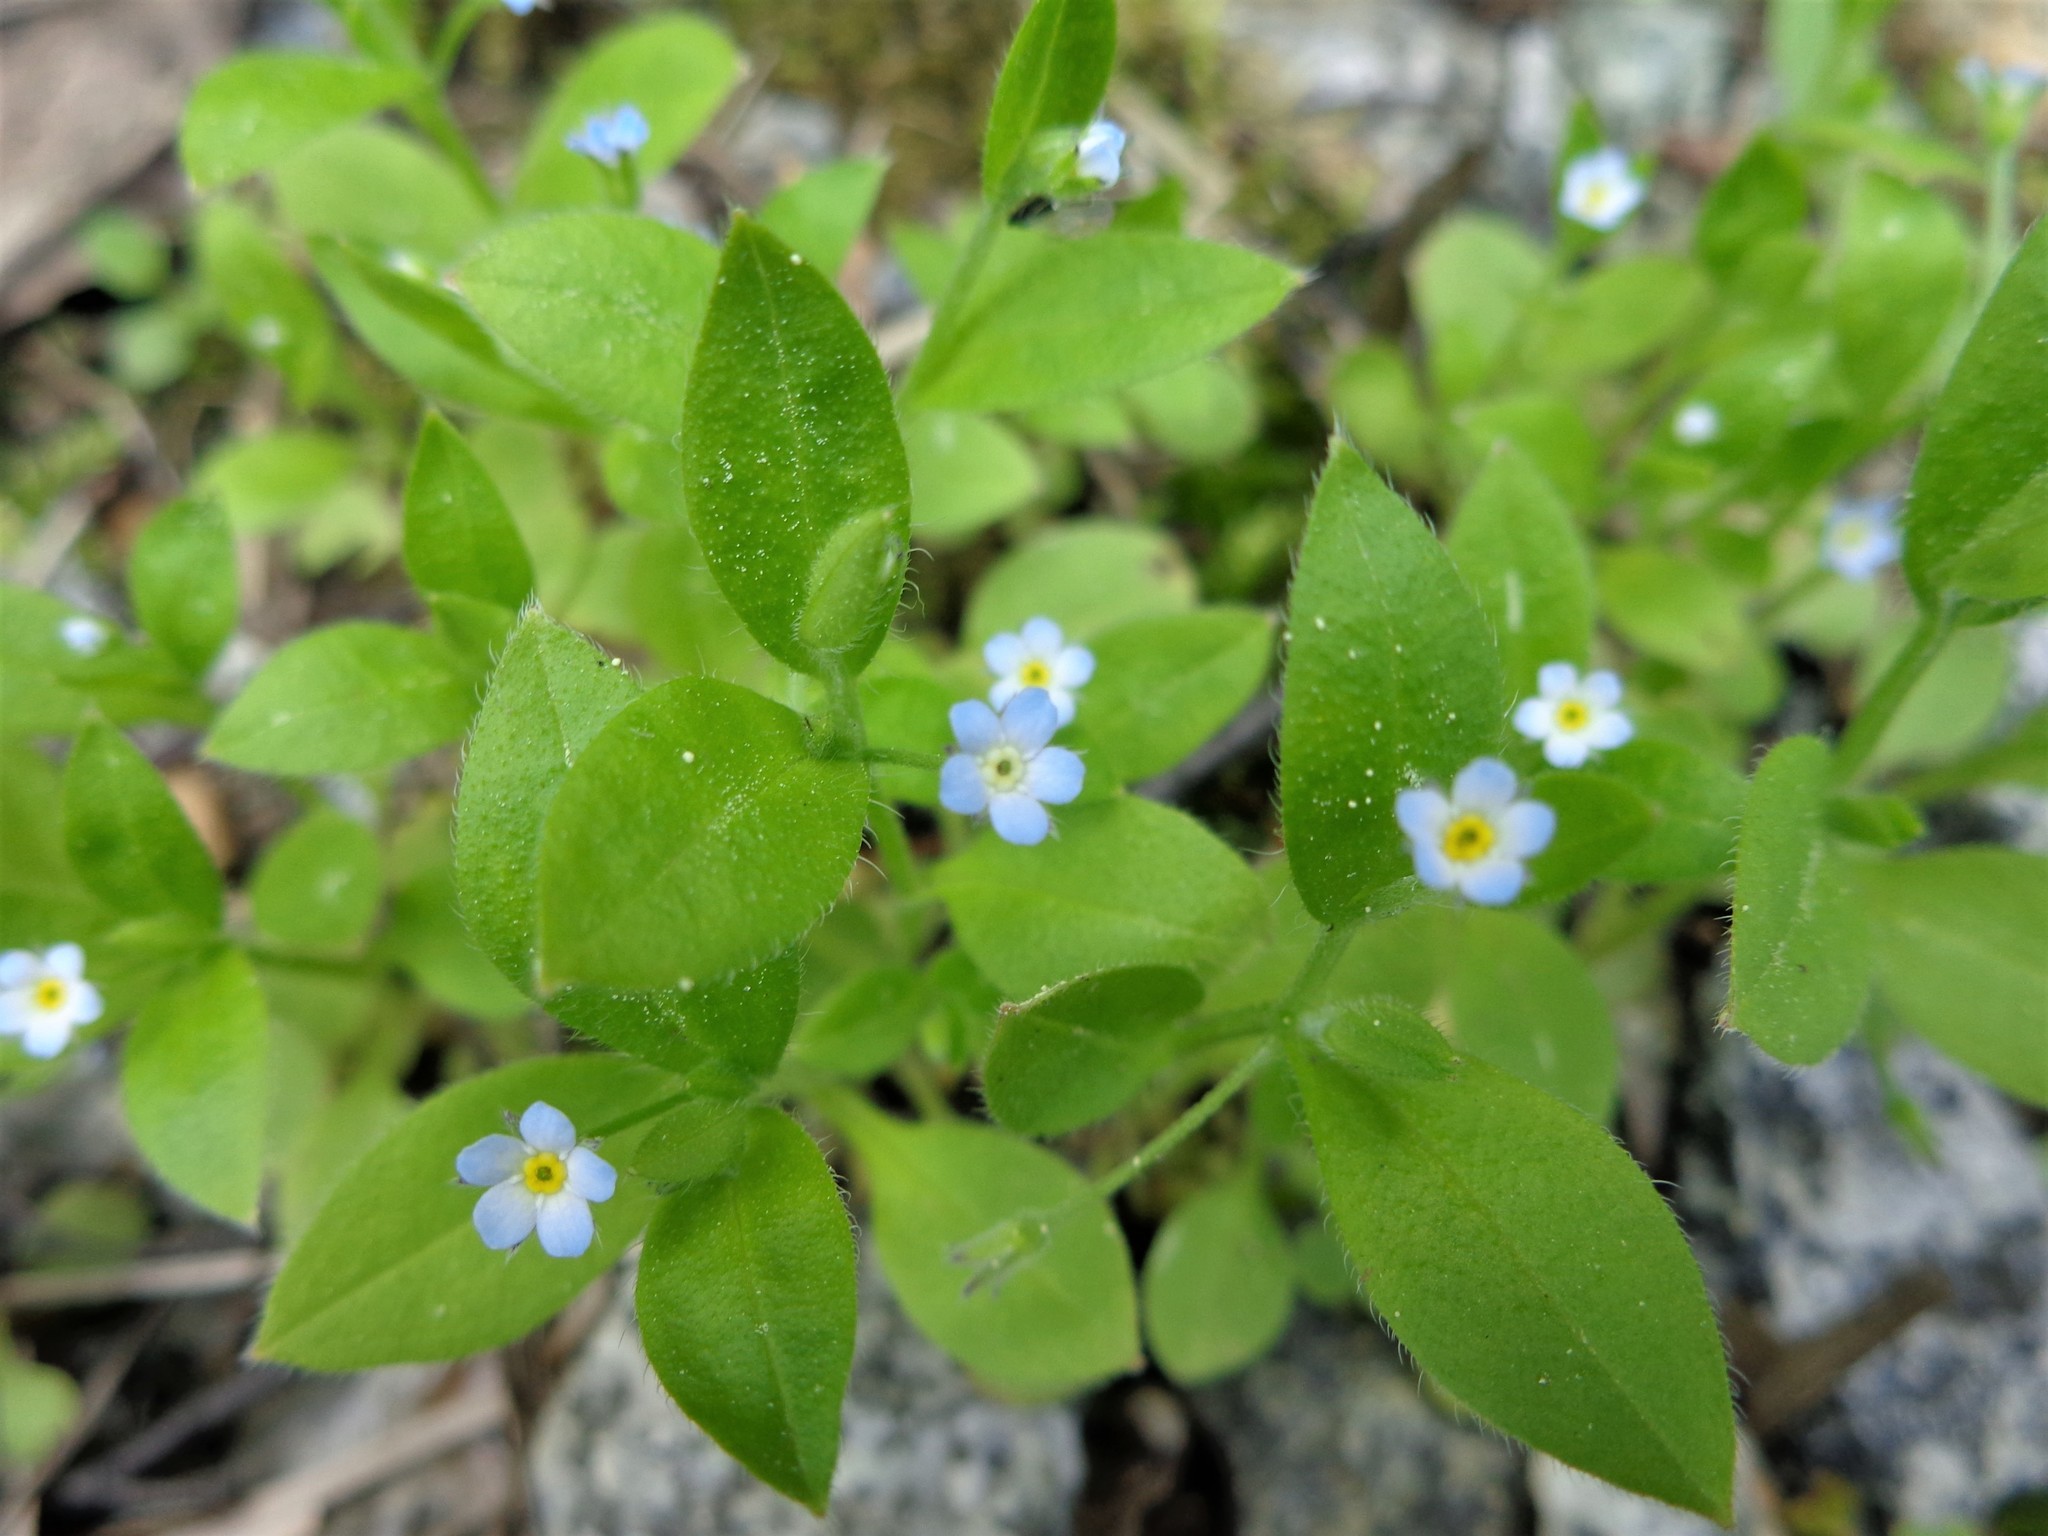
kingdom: Plantae
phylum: Tracheophyta
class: Magnoliopsida
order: Boraginales
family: Boraginaceae
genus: Myosotis
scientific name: Myosotis sparsiflora
